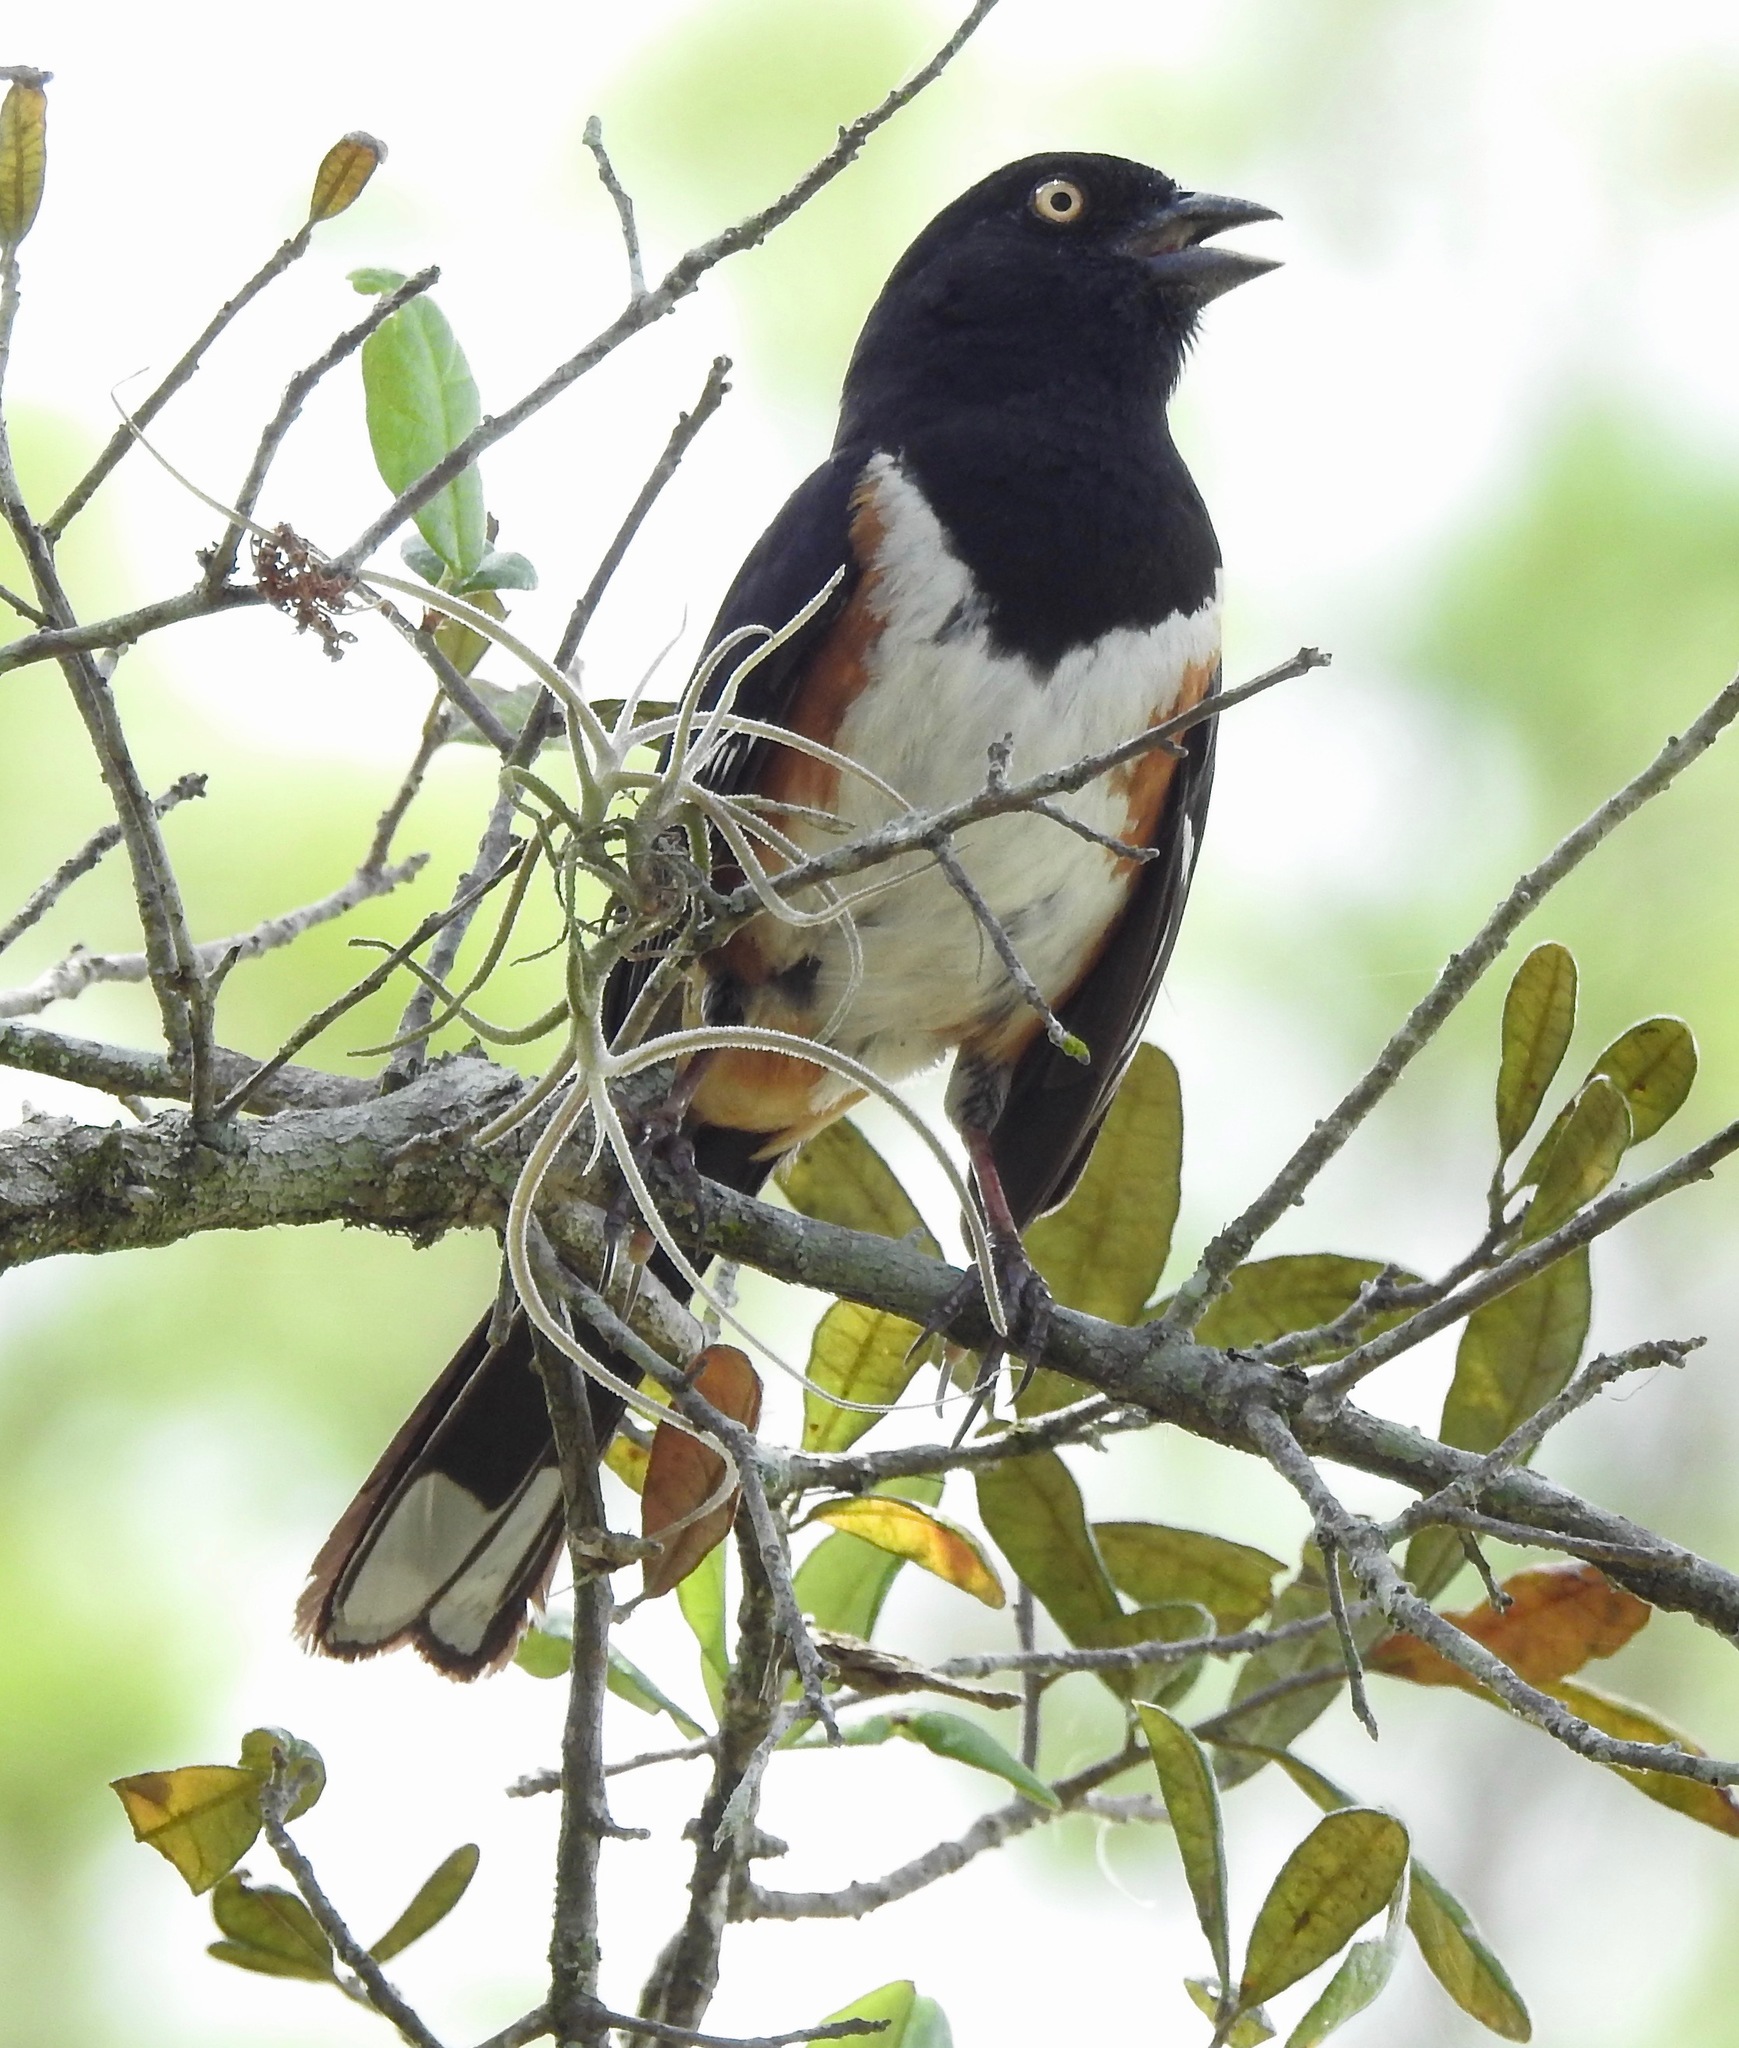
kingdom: Animalia
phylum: Chordata
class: Aves
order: Passeriformes
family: Passerellidae
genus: Pipilo
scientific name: Pipilo erythrophthalmus
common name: Eastern towhee
